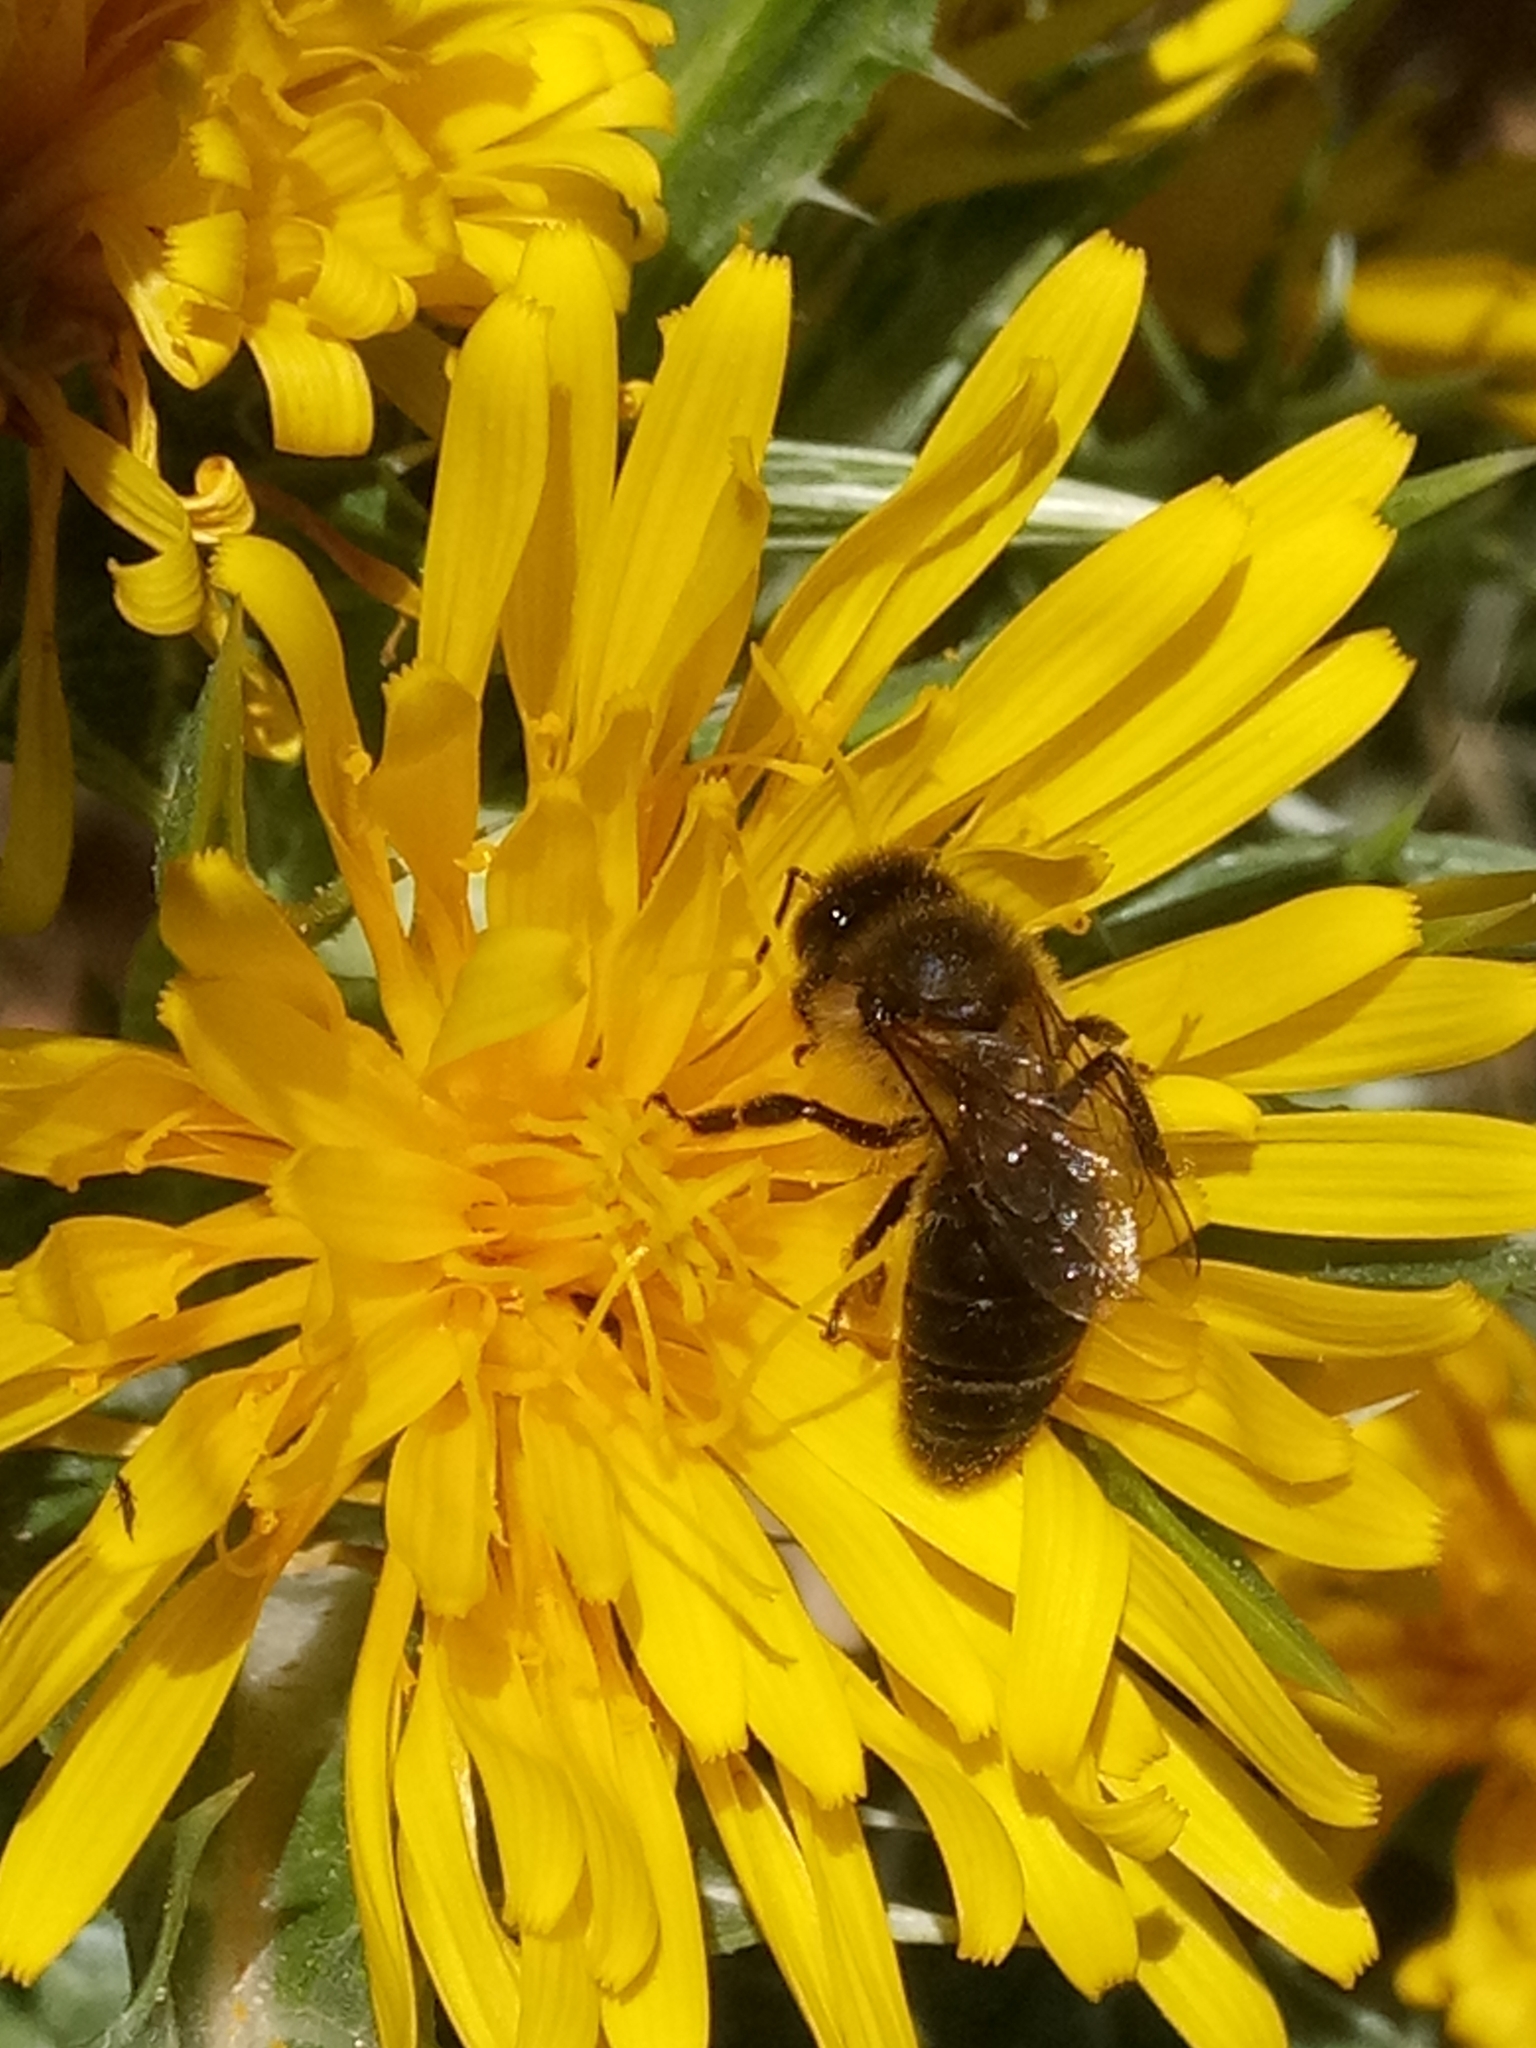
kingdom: Animalia
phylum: Arthropoda
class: Insecta
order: Hymenoptera
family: Apidae
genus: Apis
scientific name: Apis mellifera
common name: Honey bee
